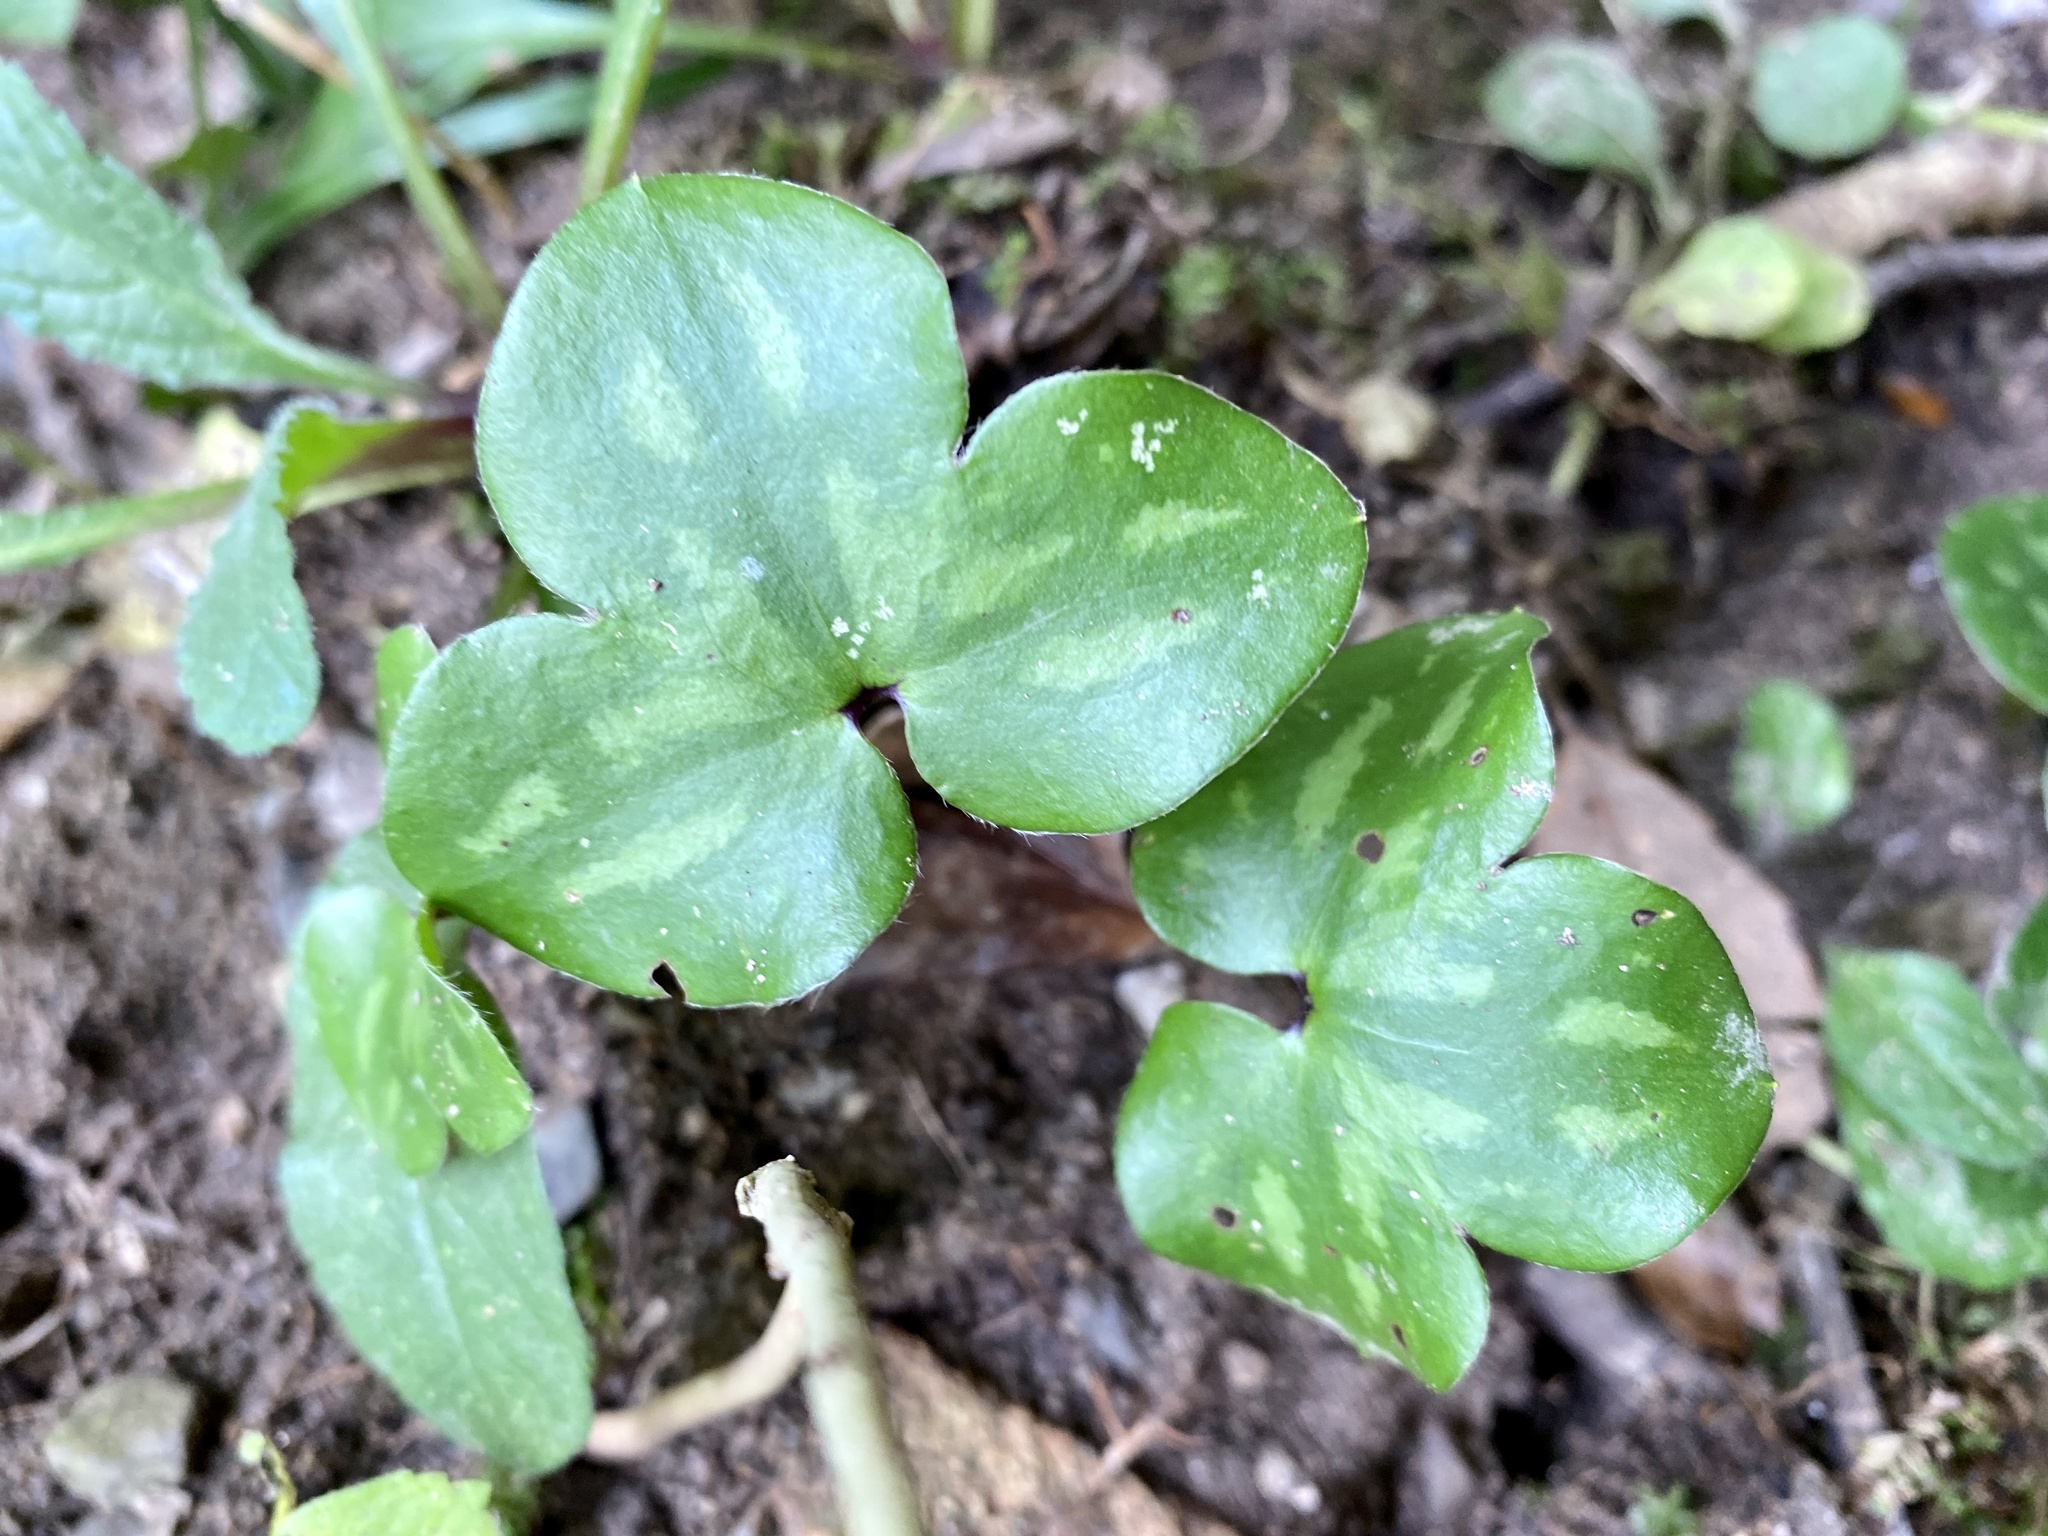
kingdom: Plantae
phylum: Tracheophyta
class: Magnoliopsida
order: Ranunculales
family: Ranunculaceae
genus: Hepatica
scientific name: Hepatica nobilis
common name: Liverleaf
